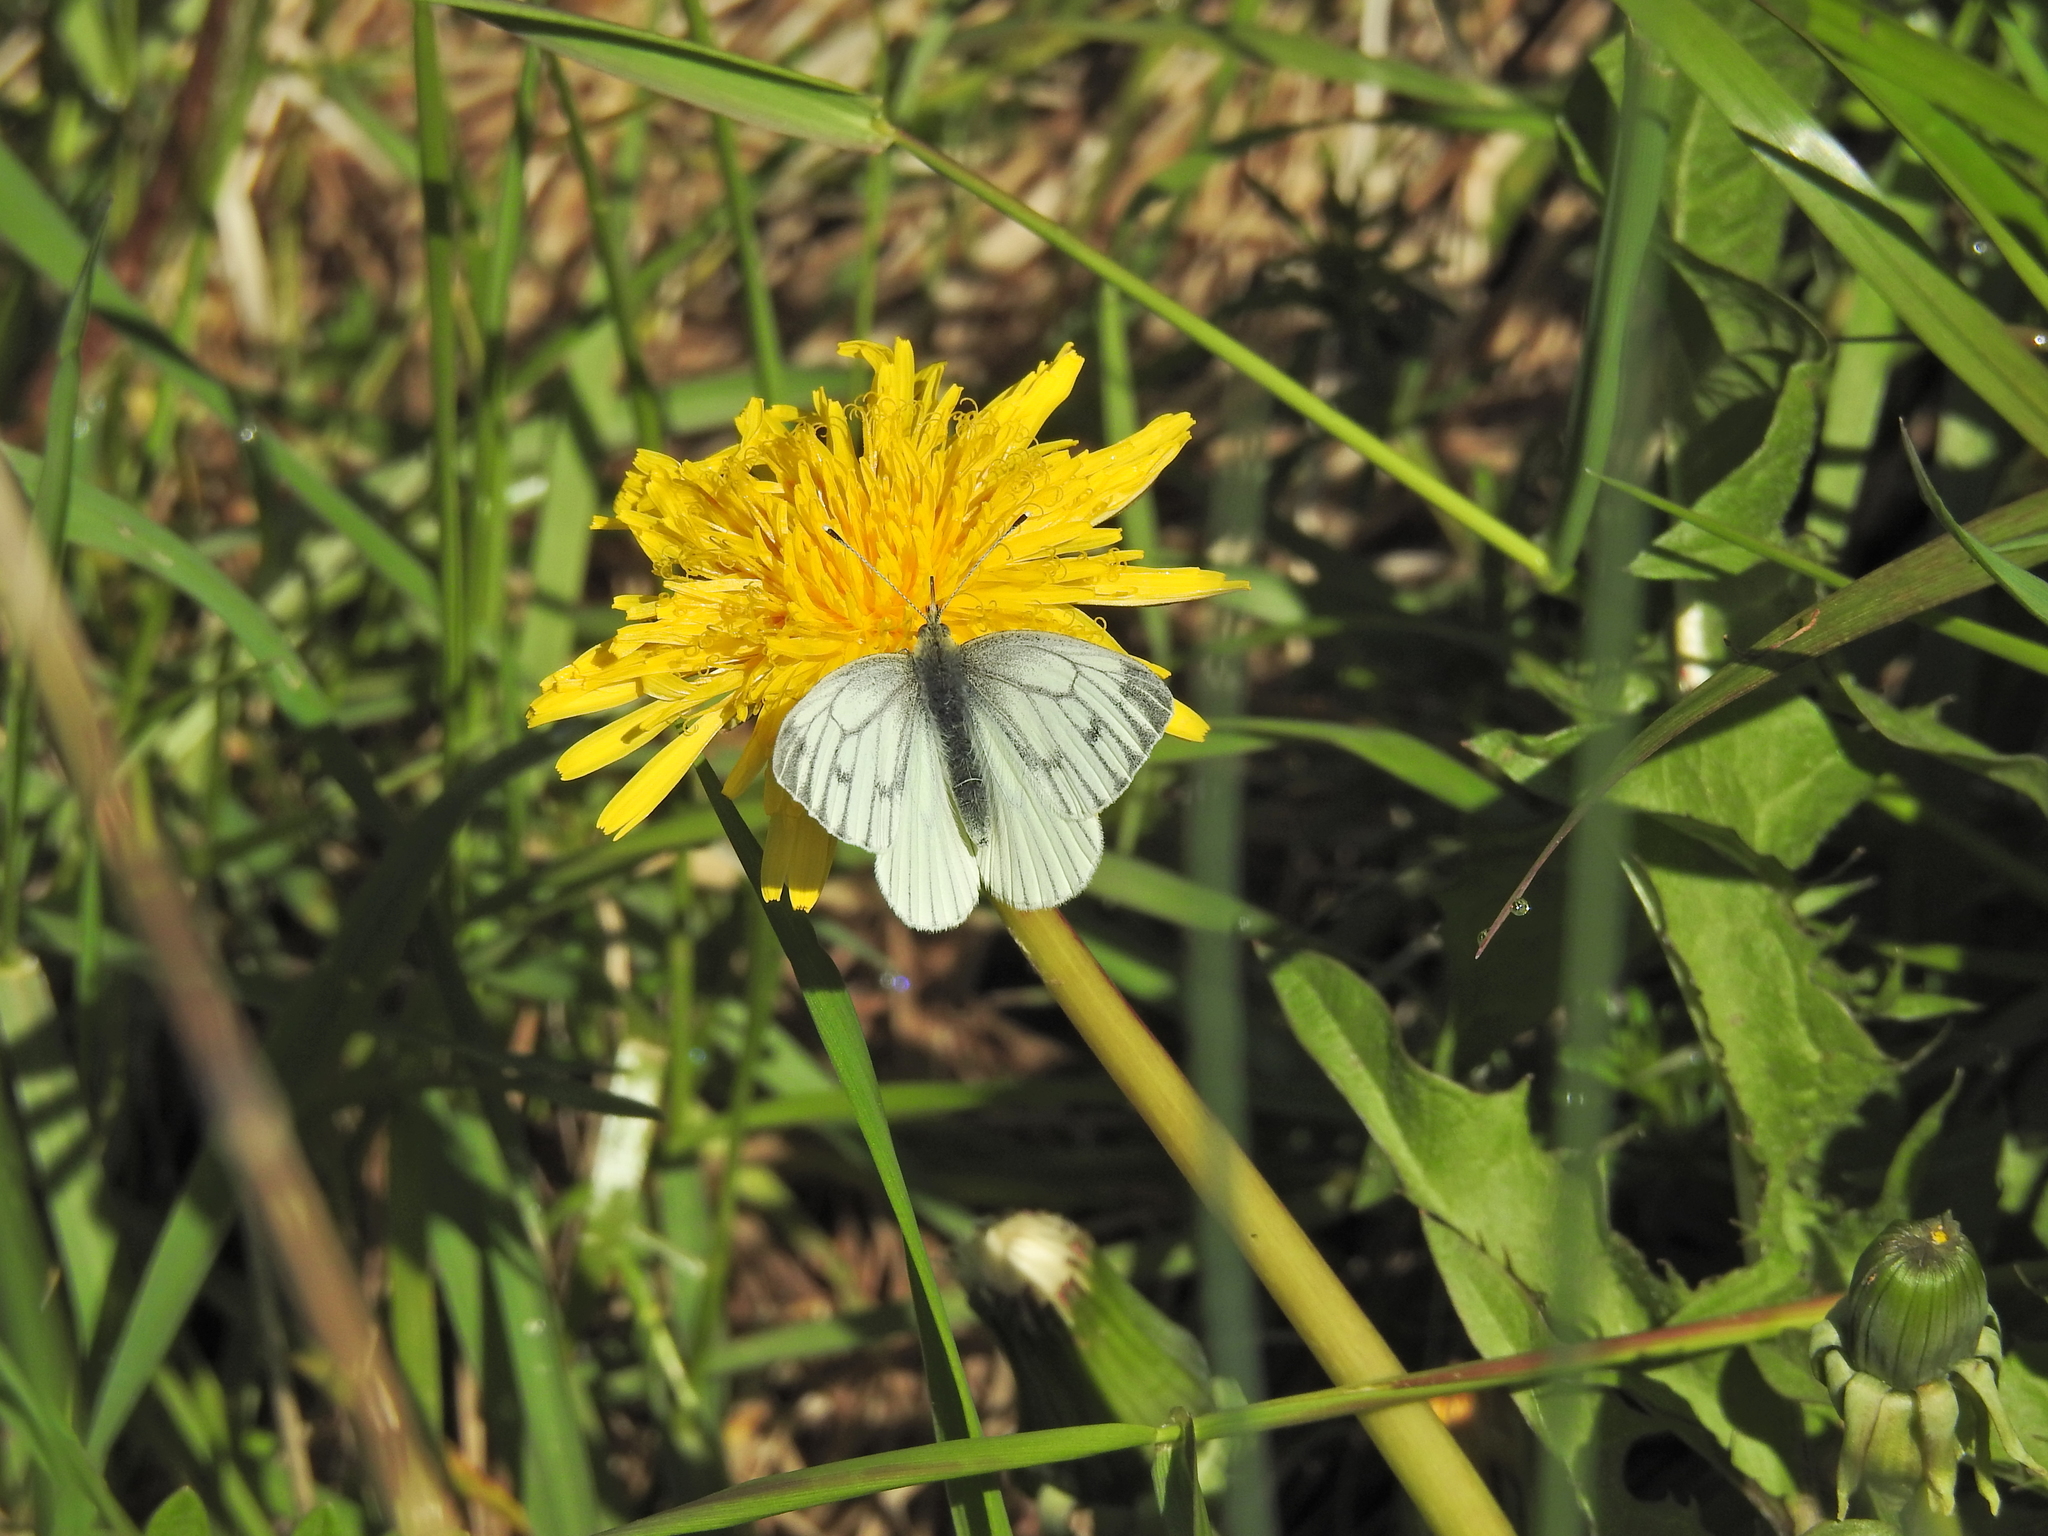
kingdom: Animalia
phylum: Arthropoda
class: Insecta
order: Lepidoptera
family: Pieridae
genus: Pieris
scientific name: Pieris napi
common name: Green-veined white
